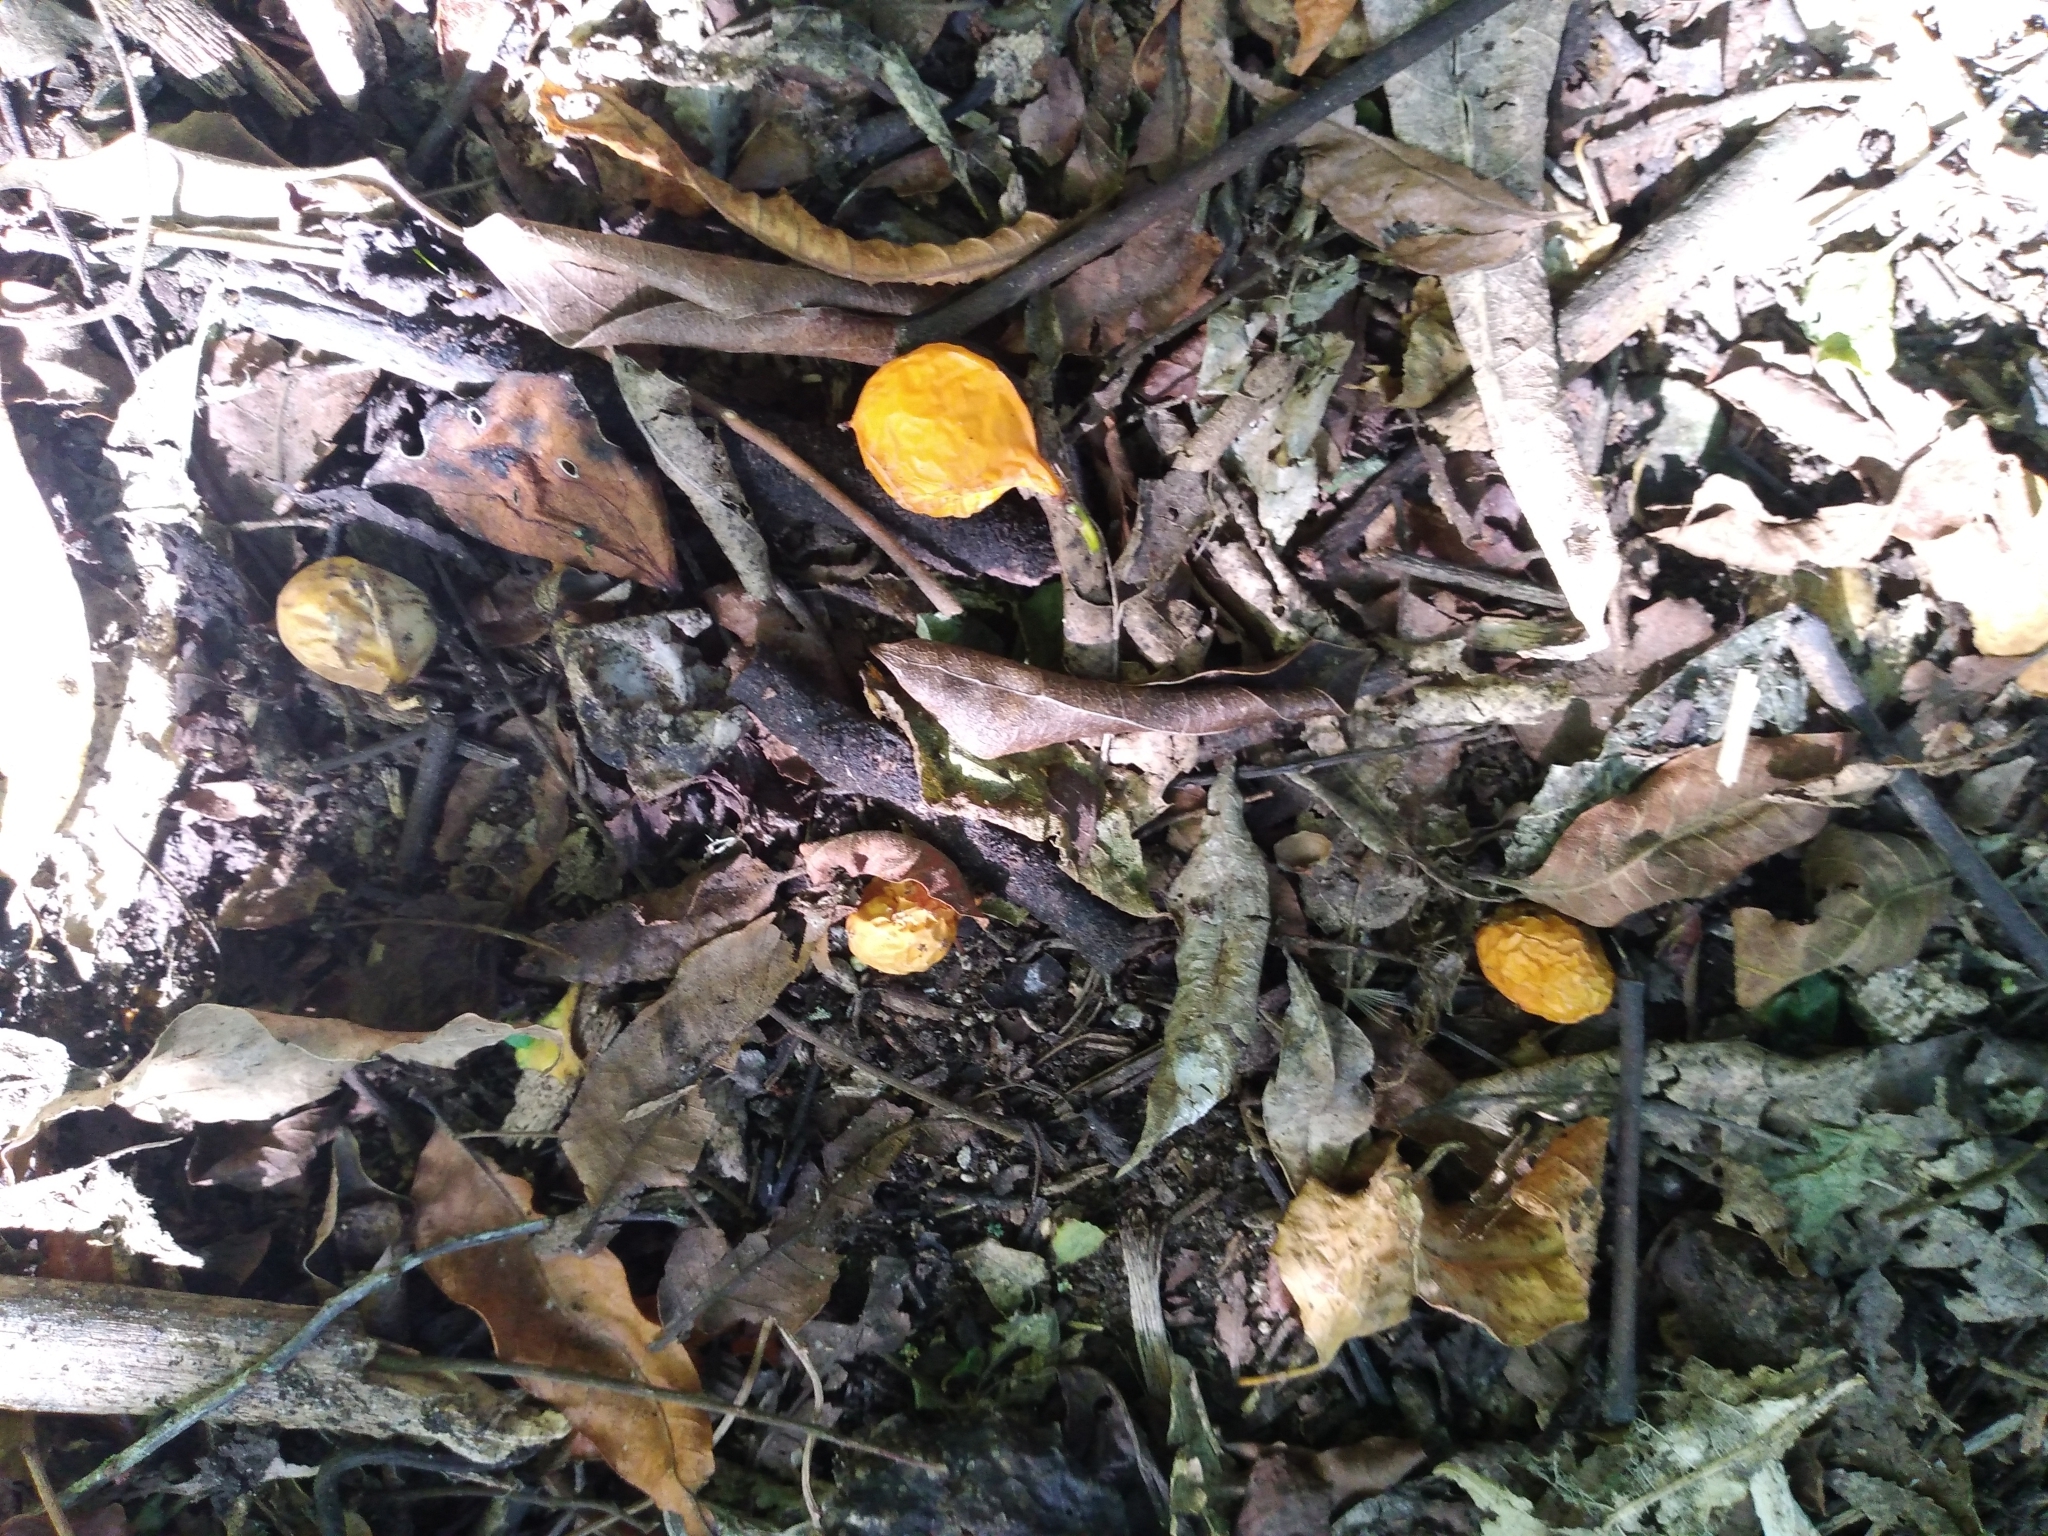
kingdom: Plantae
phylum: Tracheophyta
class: Magnoliopsida
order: Malpighiales
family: Passifloraceae
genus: Passiflora
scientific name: Passiflora tetrandra
